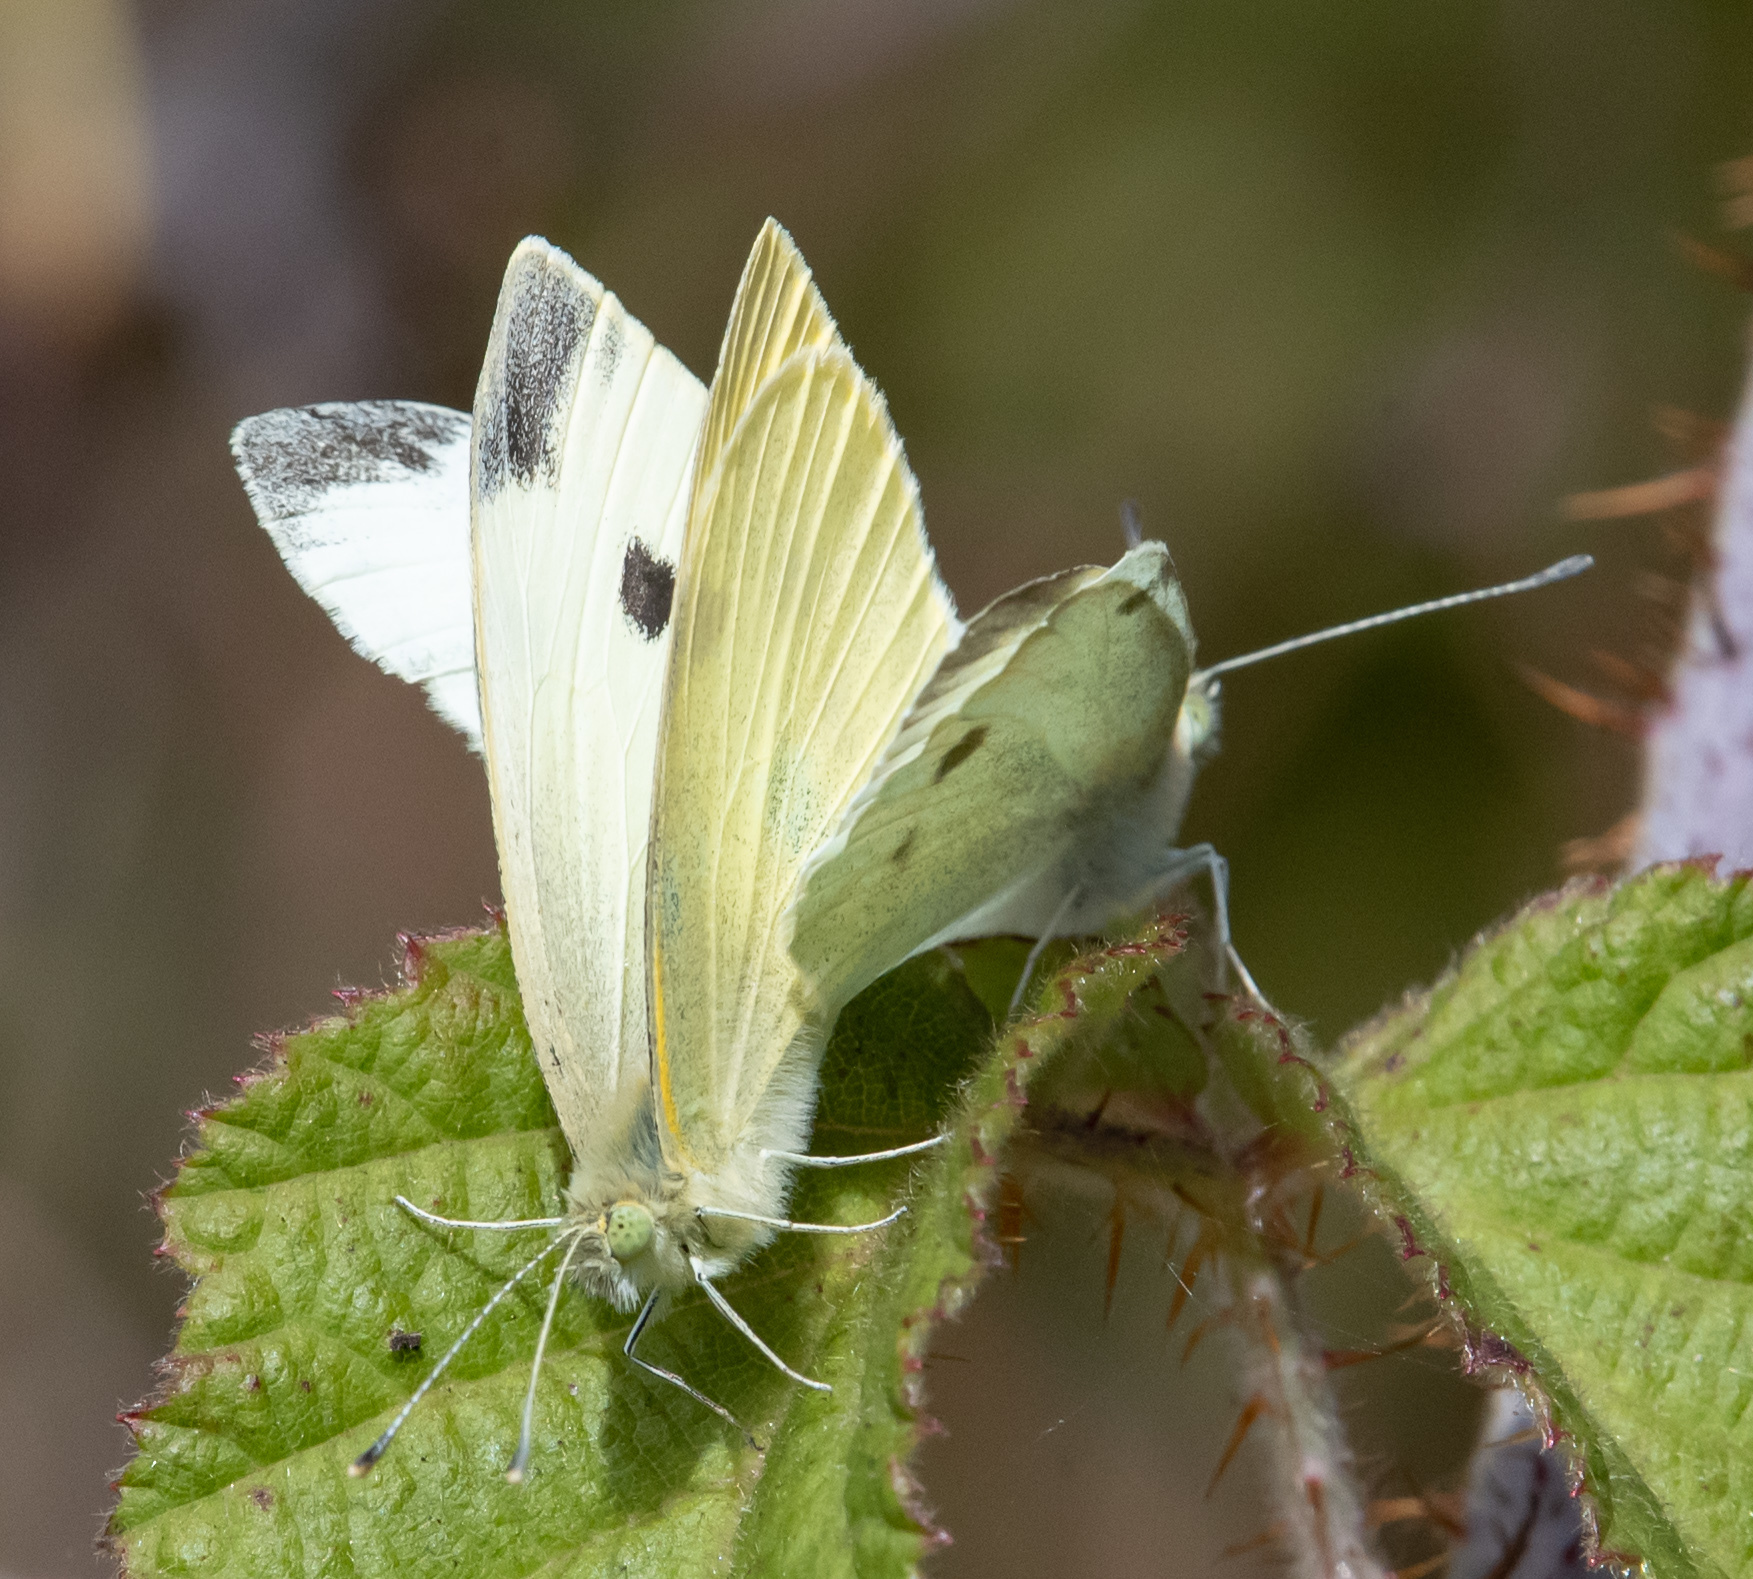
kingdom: Animalia
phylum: Arthropoda
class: Insecta
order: Lepidoptera
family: Pieridae
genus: Pieris
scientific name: Pieris rapae
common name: Small white
